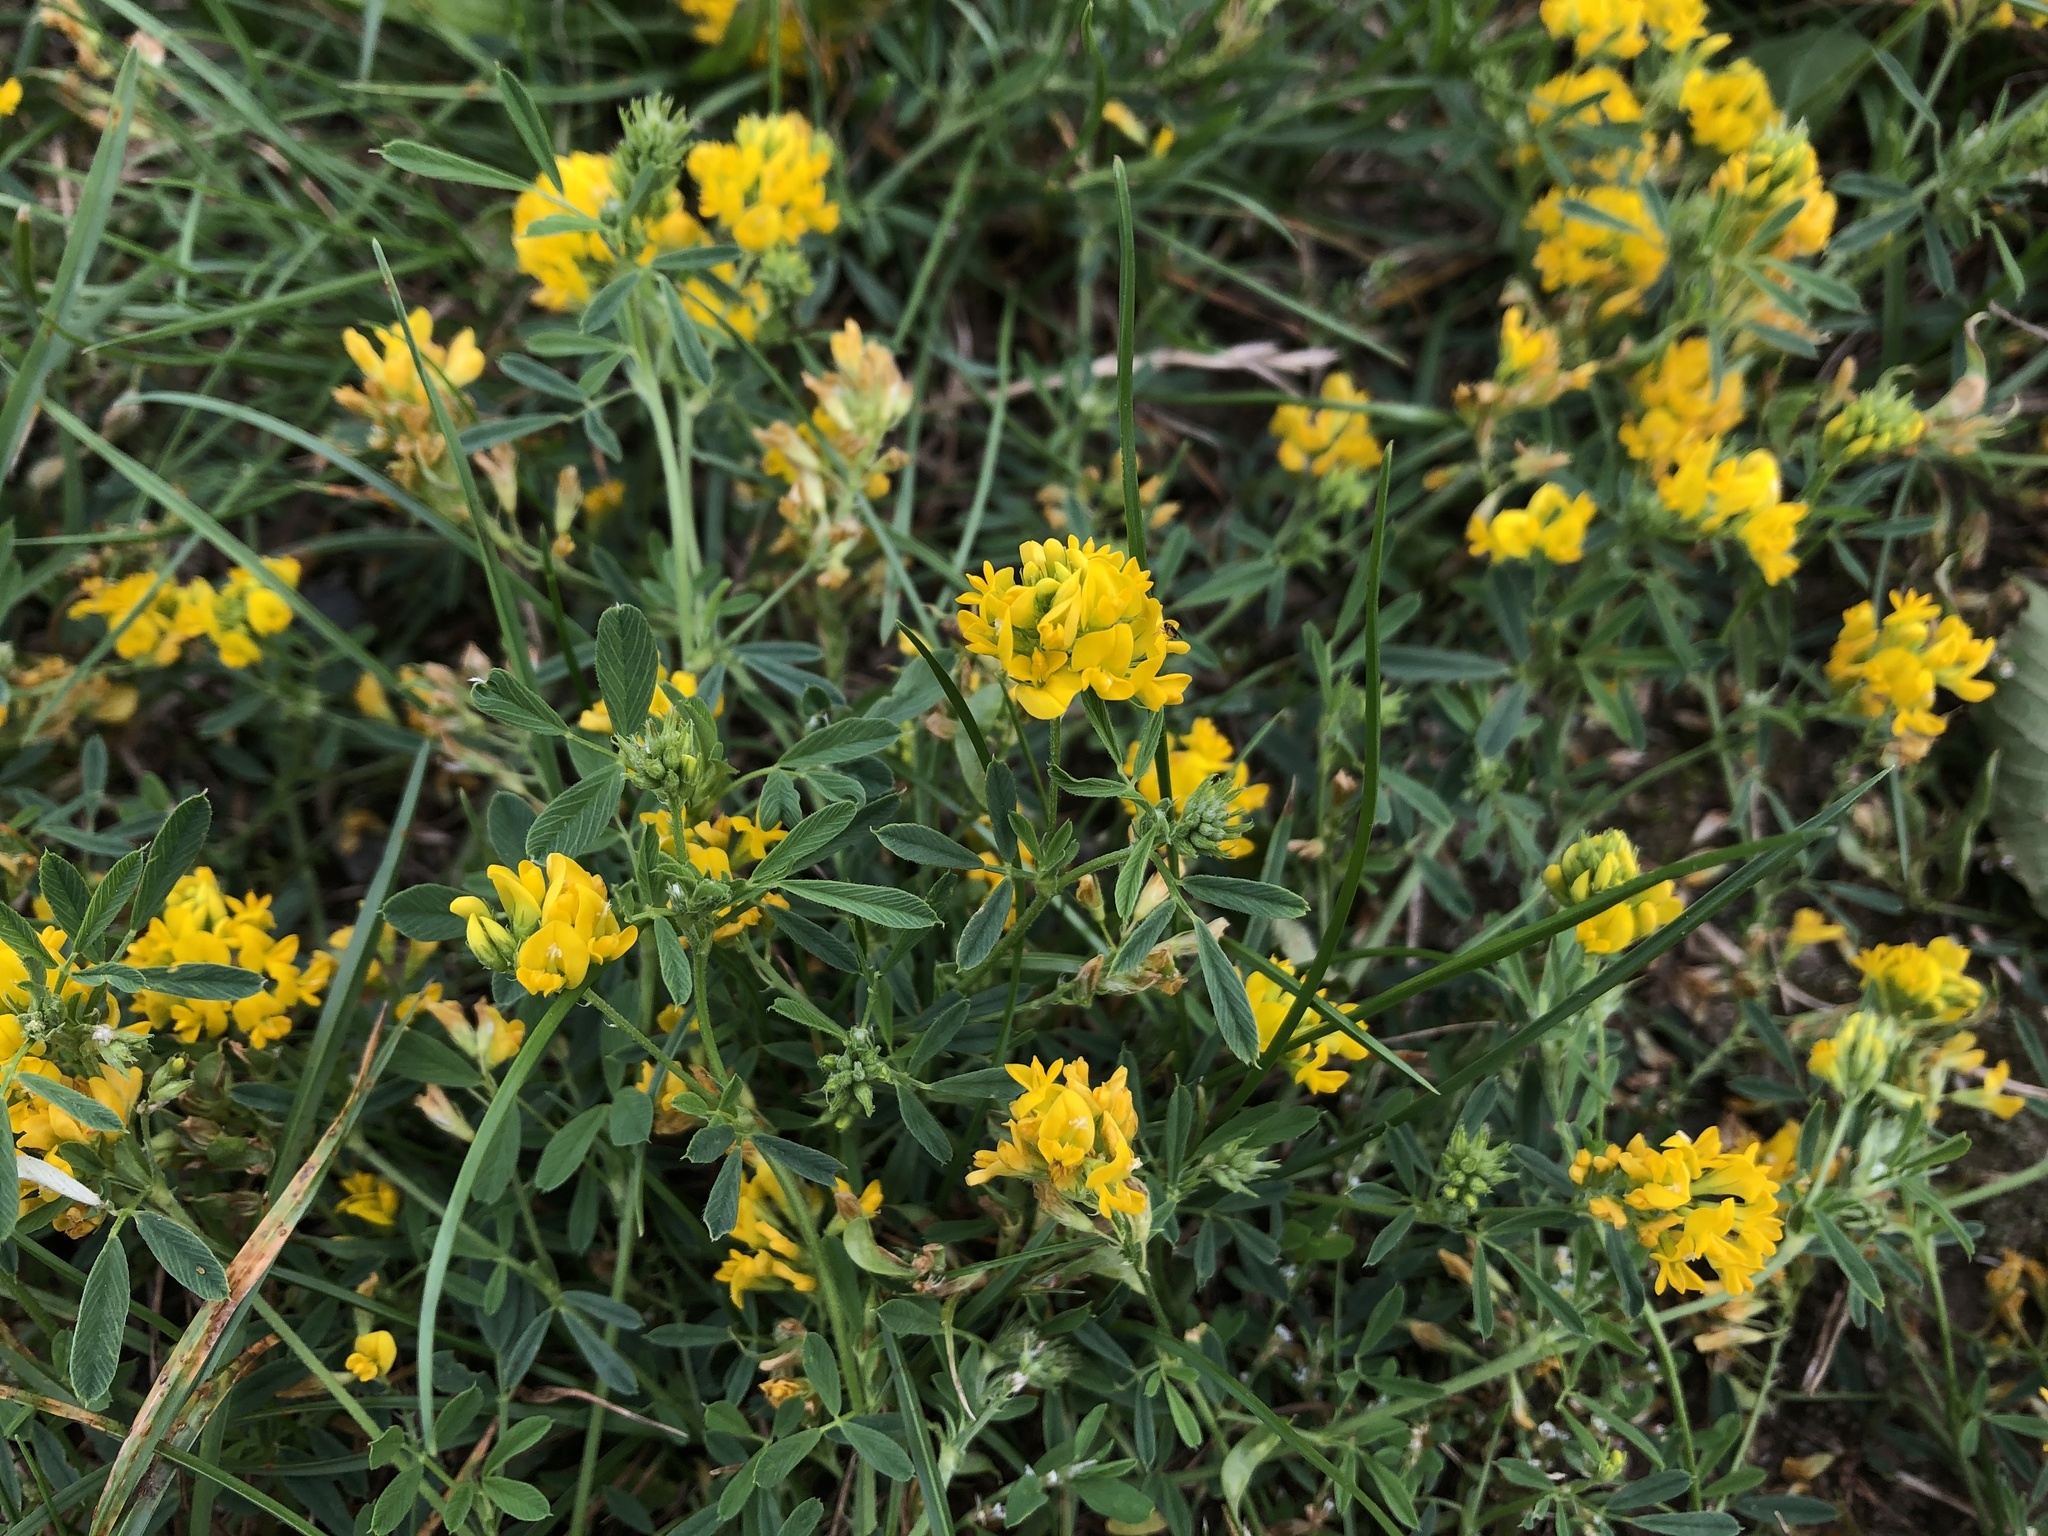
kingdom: Plantae
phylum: Tracheophyta
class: Magnoliopsida
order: Fabales
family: Fabaceae
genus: Medicago
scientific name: Medicago falcata
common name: Sickle medick
